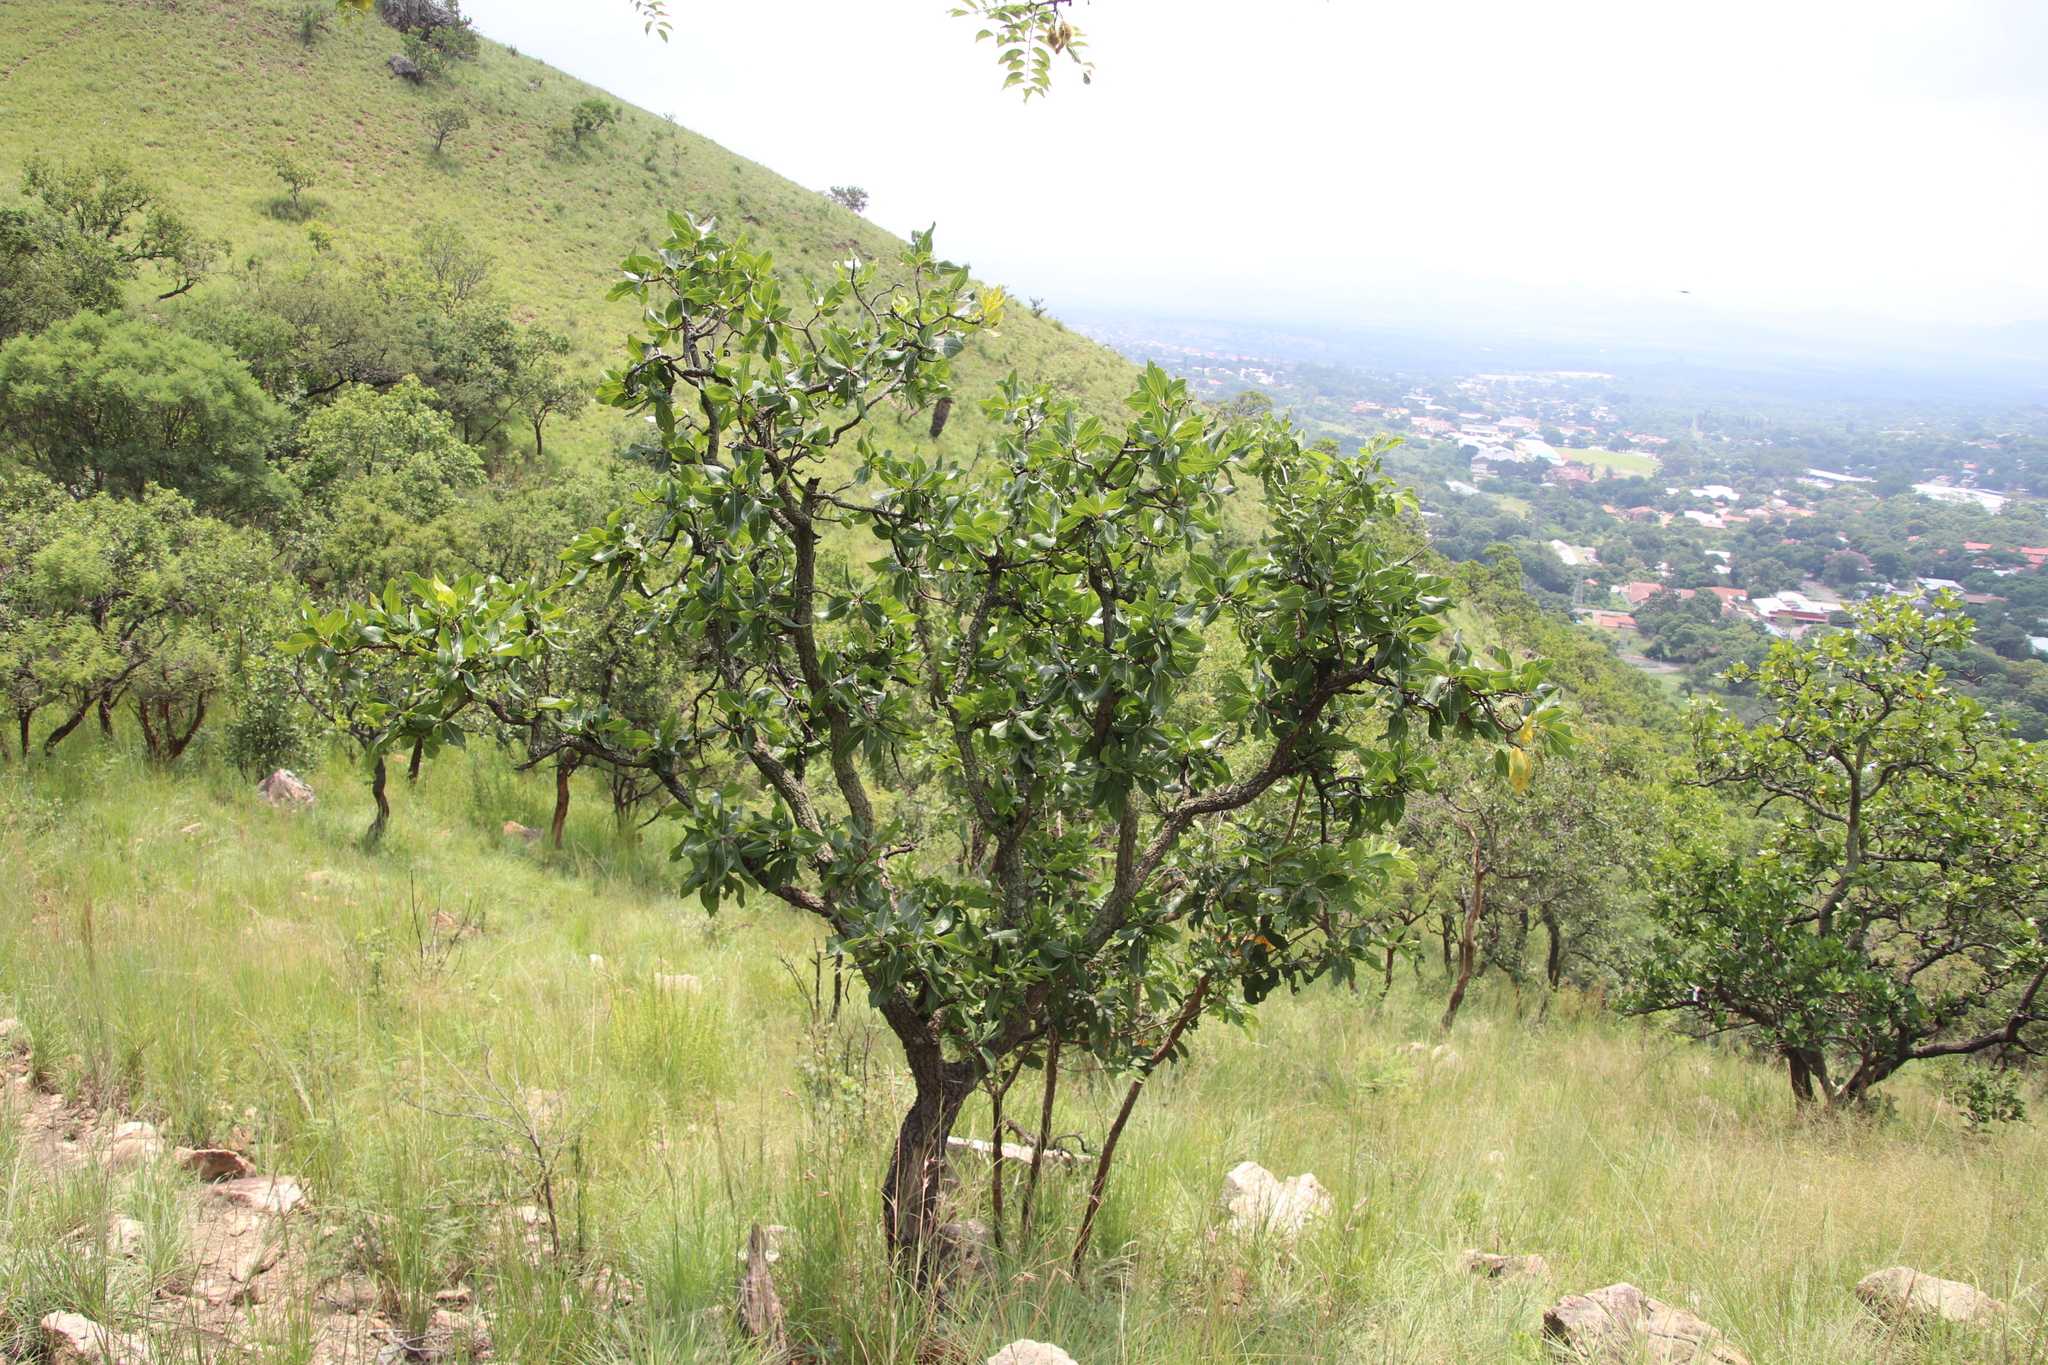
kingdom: Plantae
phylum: Tracheophyta
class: Magnoliopsida
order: Proteales
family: Proteaceae
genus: Faurea
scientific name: Faurea rochetiana
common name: Broad-leaved beech
